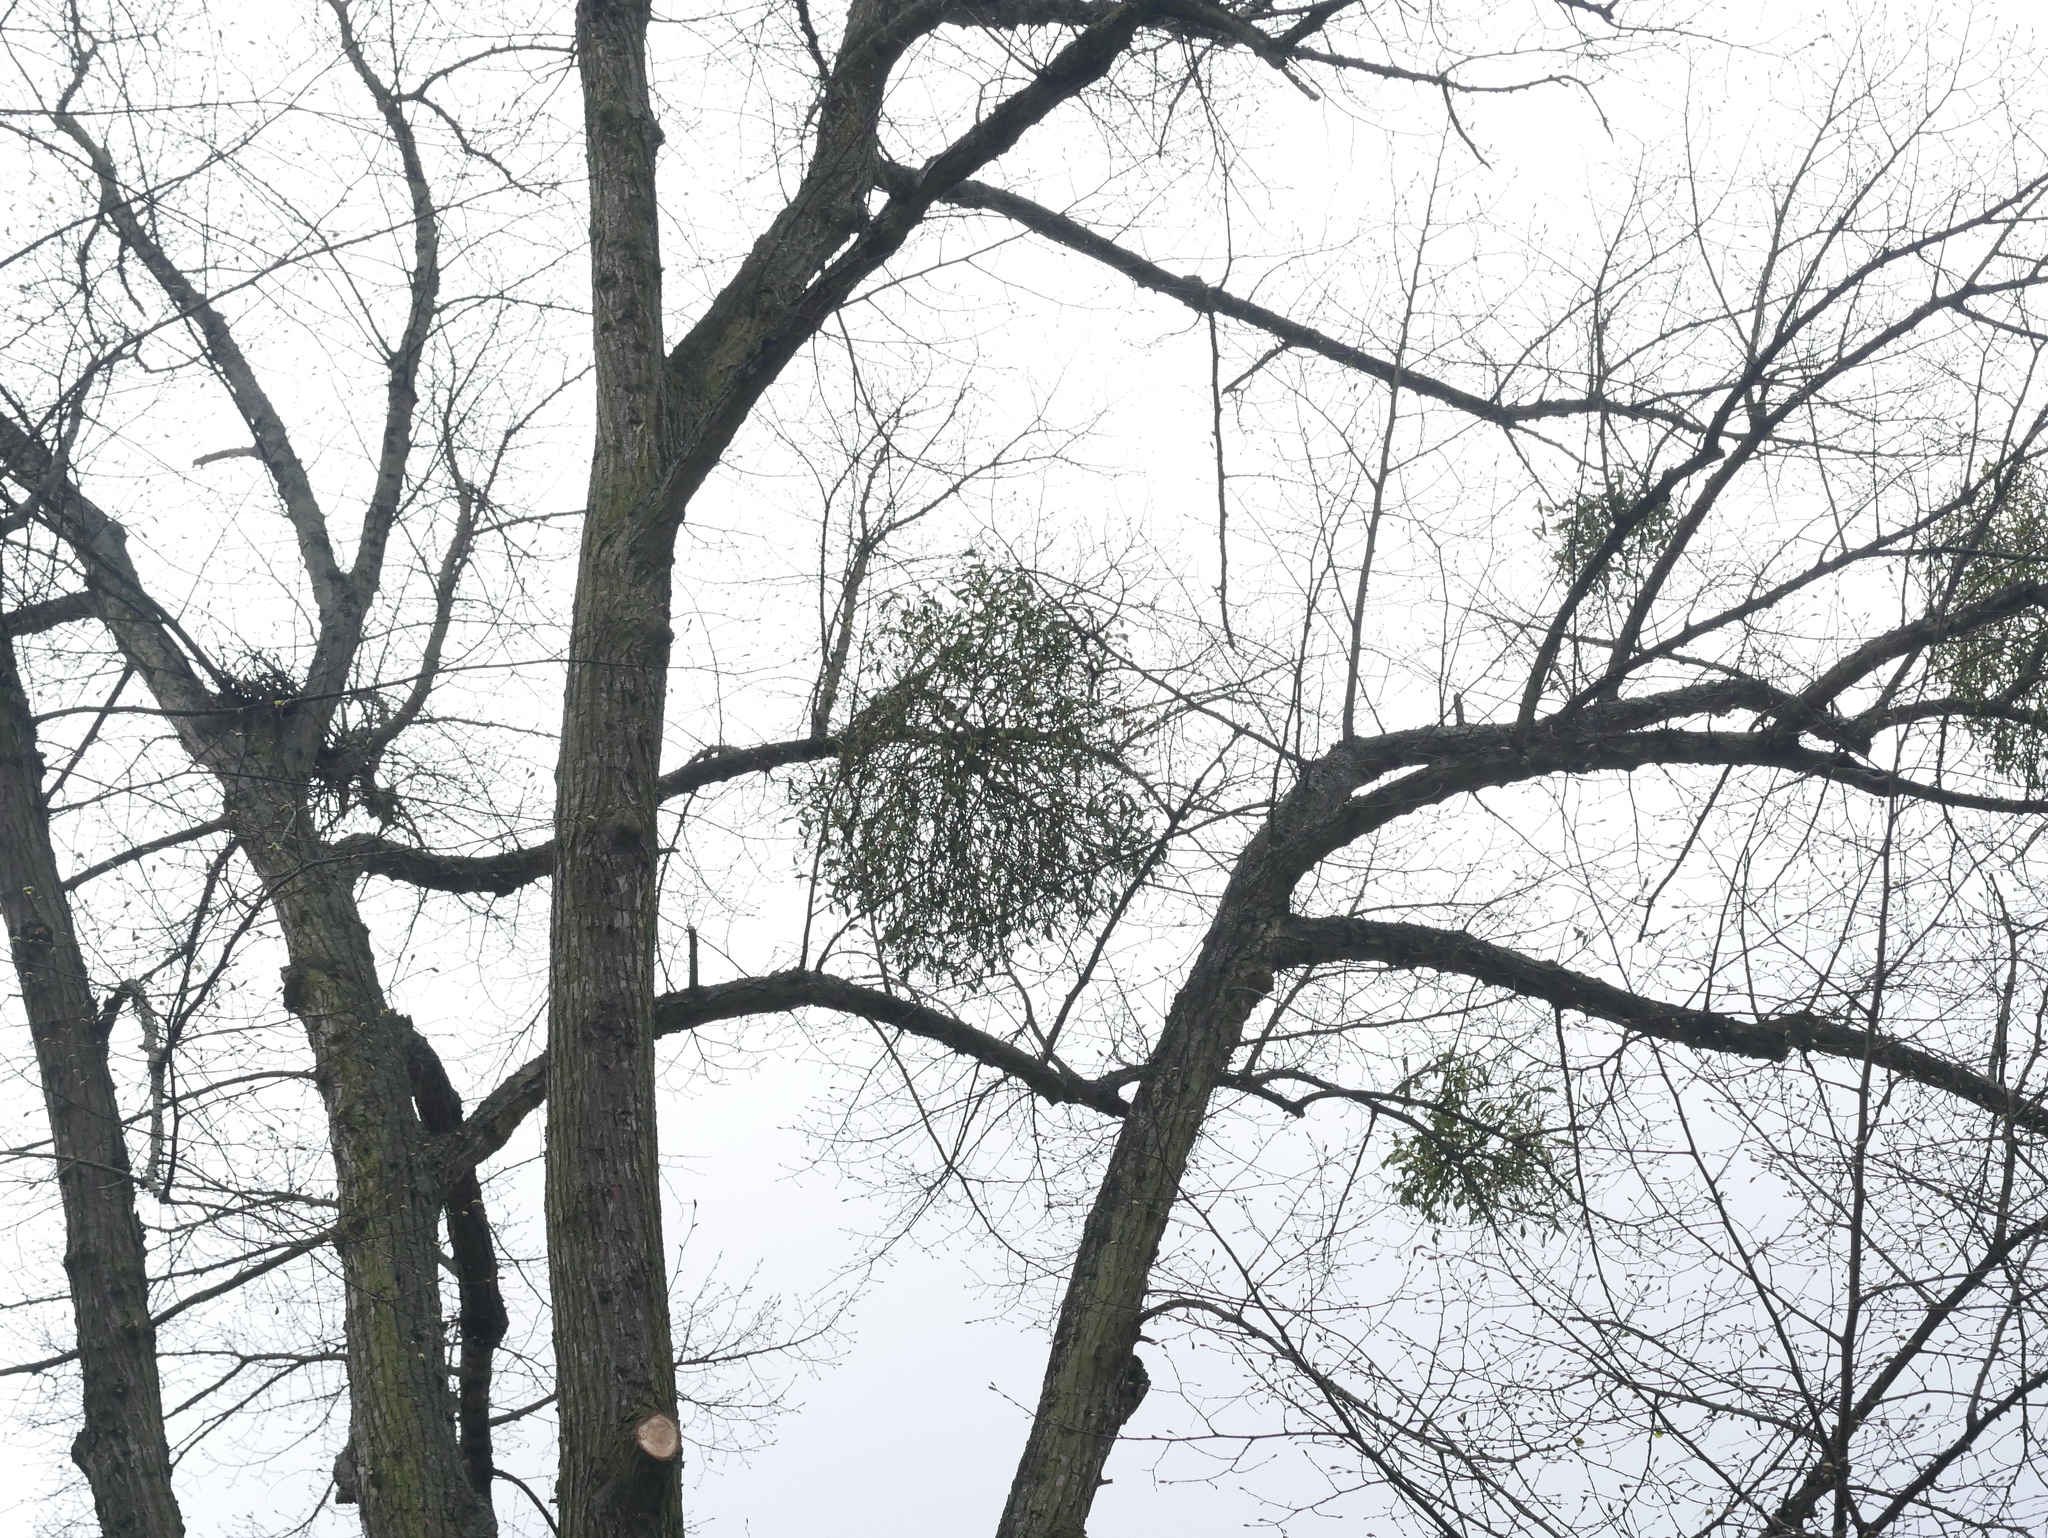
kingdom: Plantae
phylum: Tracheophyta
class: Magnoliopsida
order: Santalales
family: Viscaceae
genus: Viscum
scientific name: Viscum album
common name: Mistletoe
